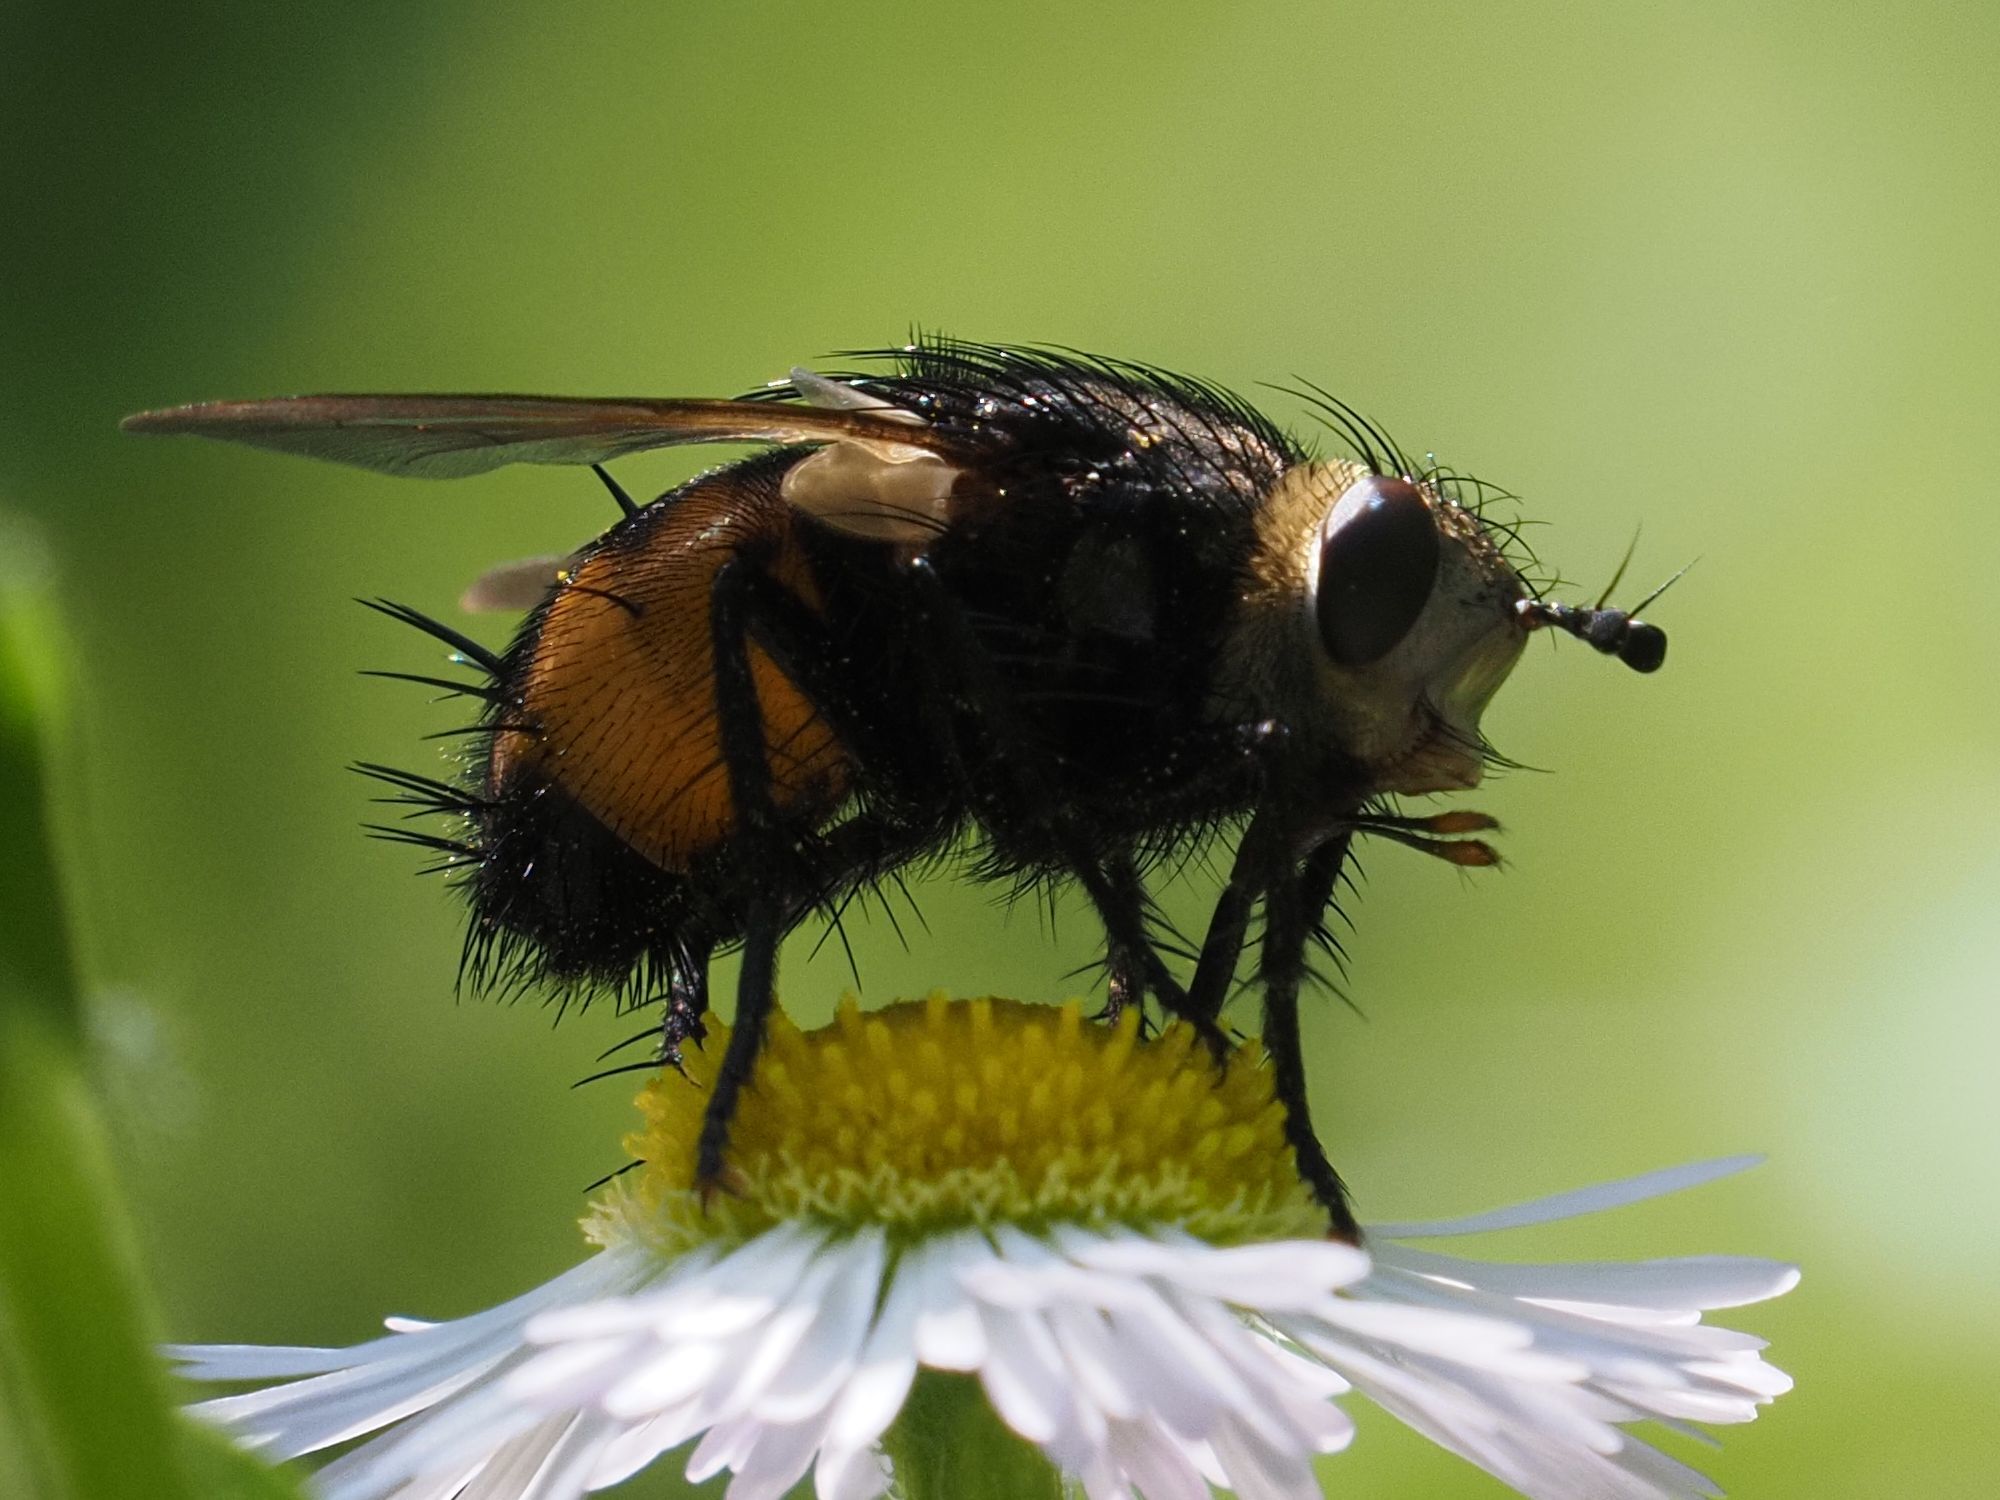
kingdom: Animalia
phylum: Arthropoda
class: Insecta
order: Diptera
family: Tachinidae
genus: Nowickia
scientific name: Nowickia ferox
